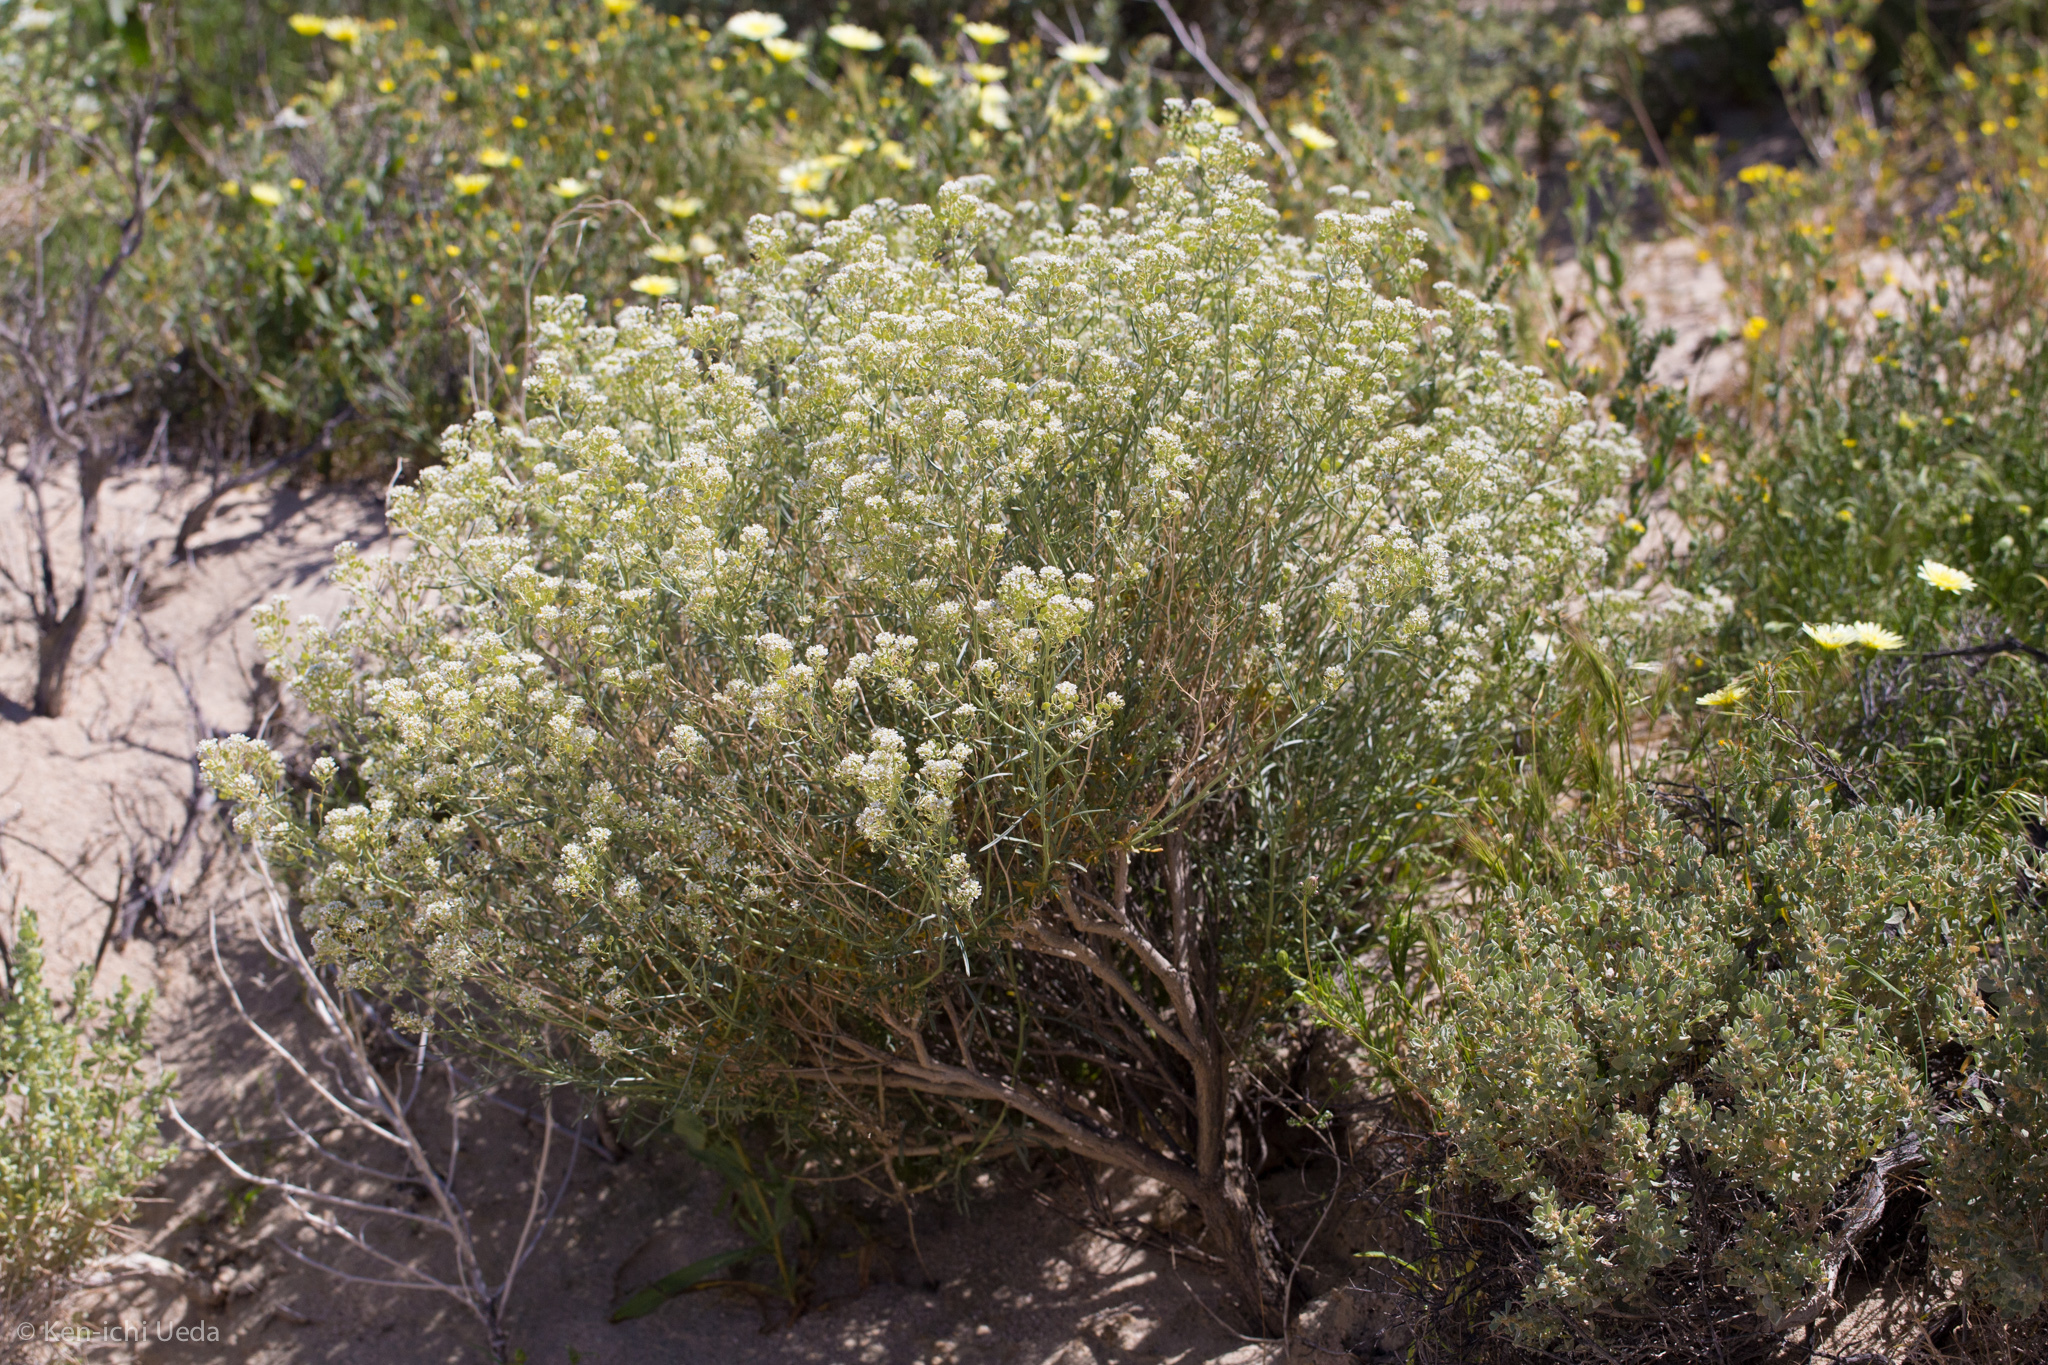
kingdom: Plantae
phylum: Tracheophyta
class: Magnoliopsida
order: Brassicales
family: Brassicaceae
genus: Lepidium
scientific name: Lepidium fremontii
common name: Fremont's pepperwort
